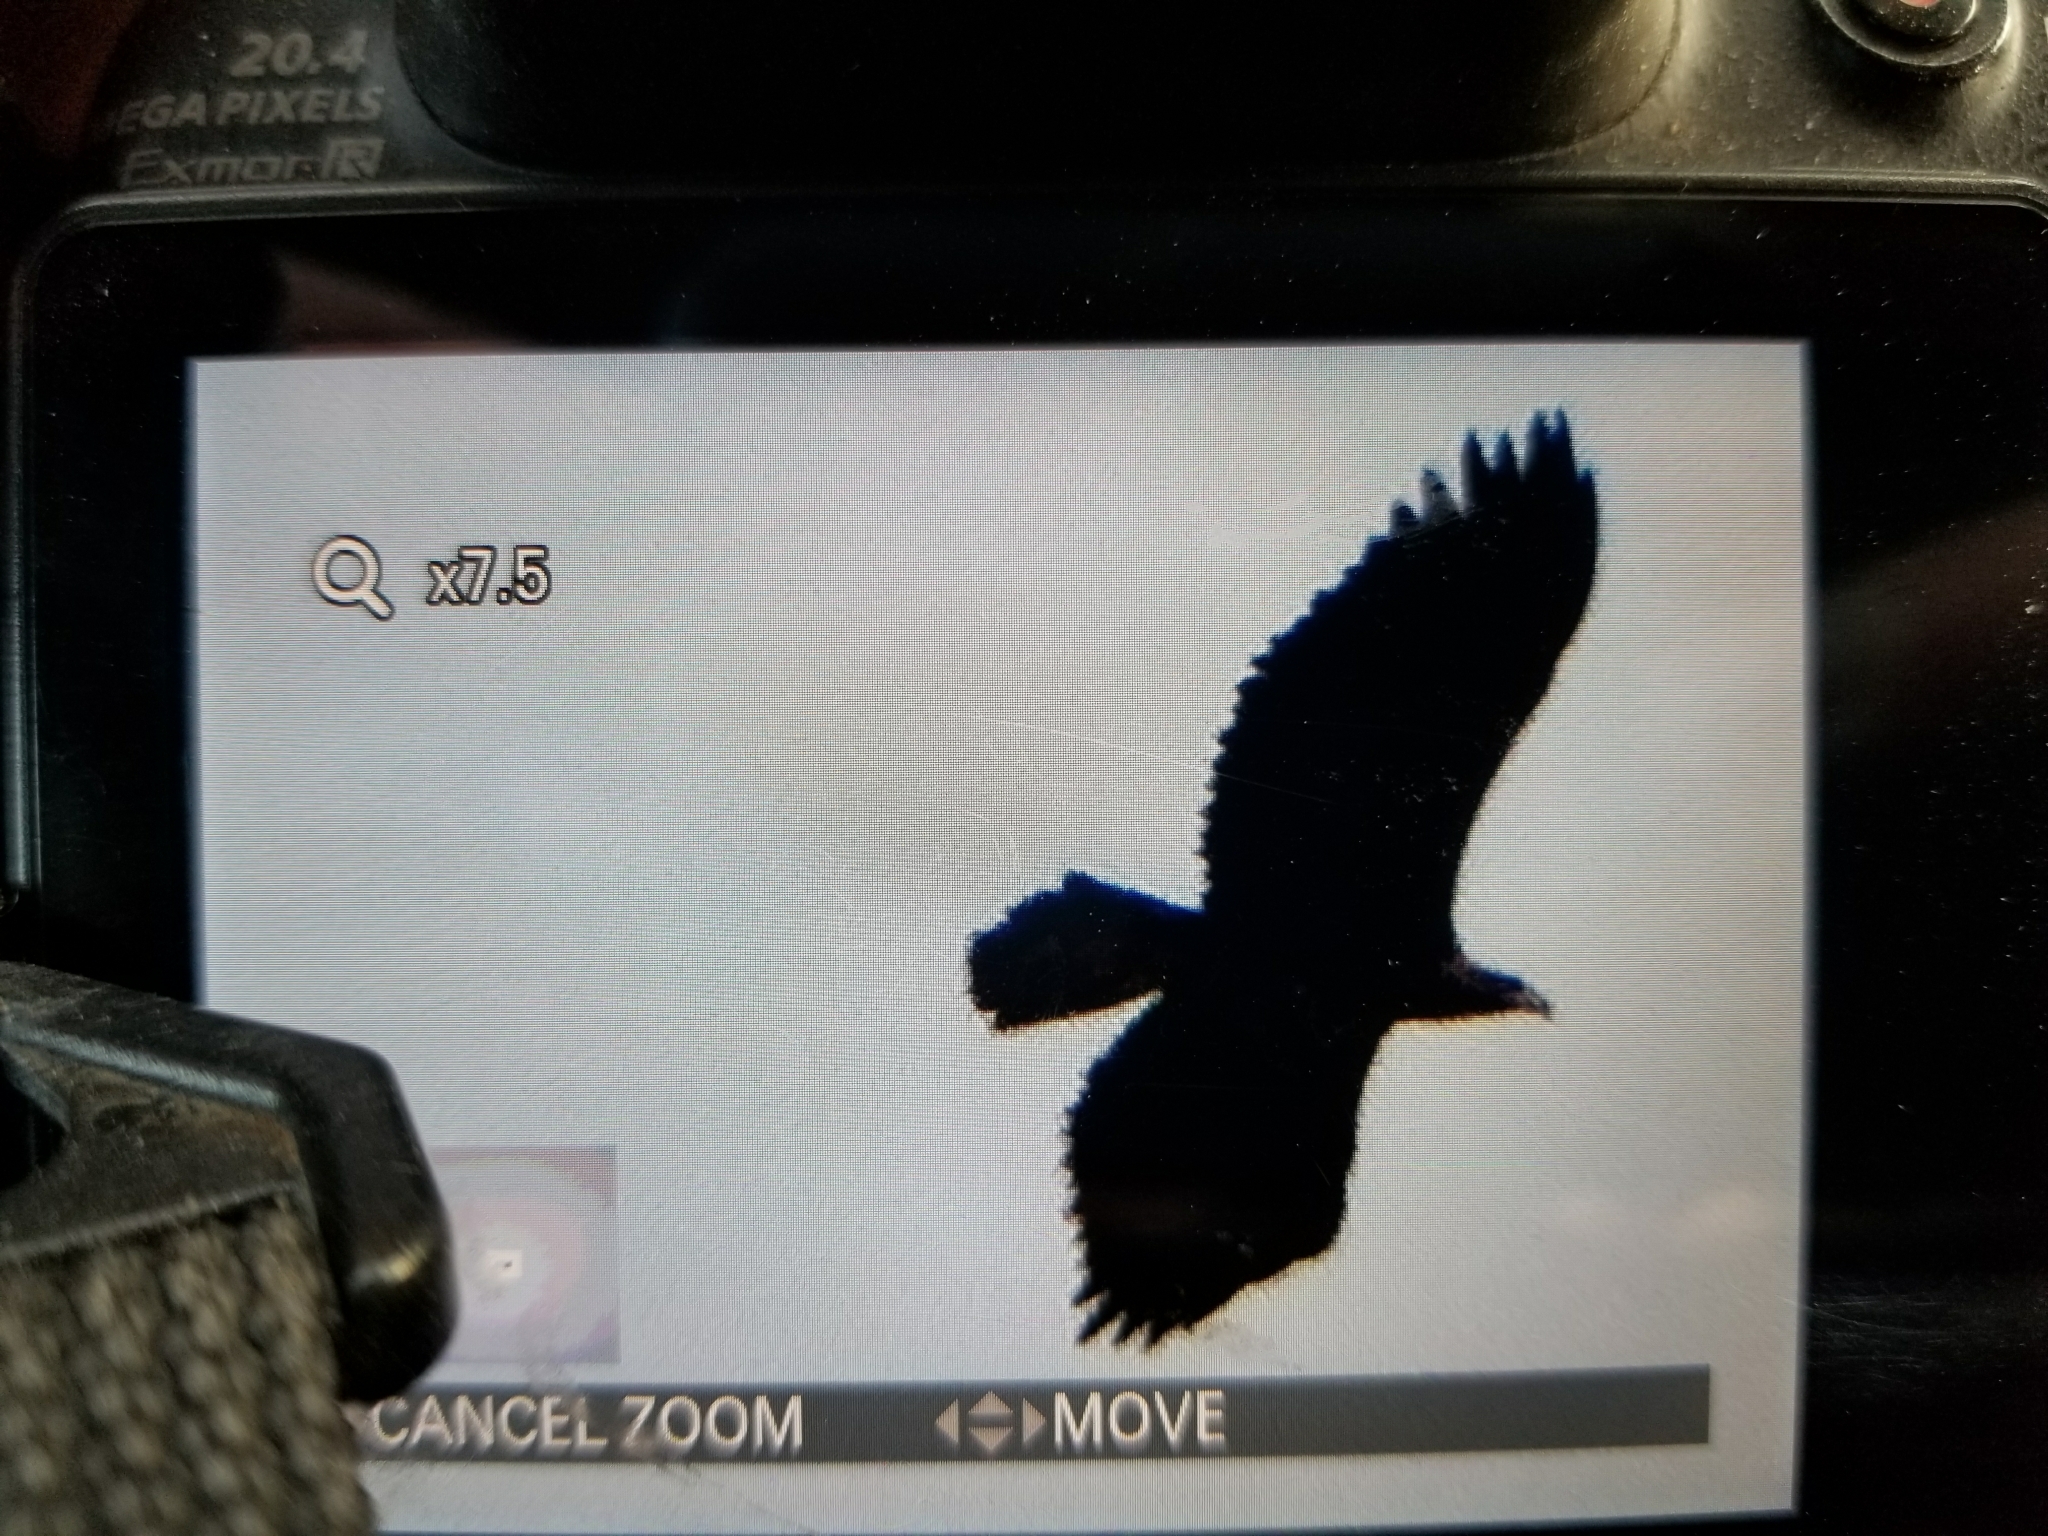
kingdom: Animalia
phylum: Chordata
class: Aves
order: Accipitriformes
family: Accipitridae
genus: Aquila
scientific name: Aquila chrysaetos
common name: Golden eagle
